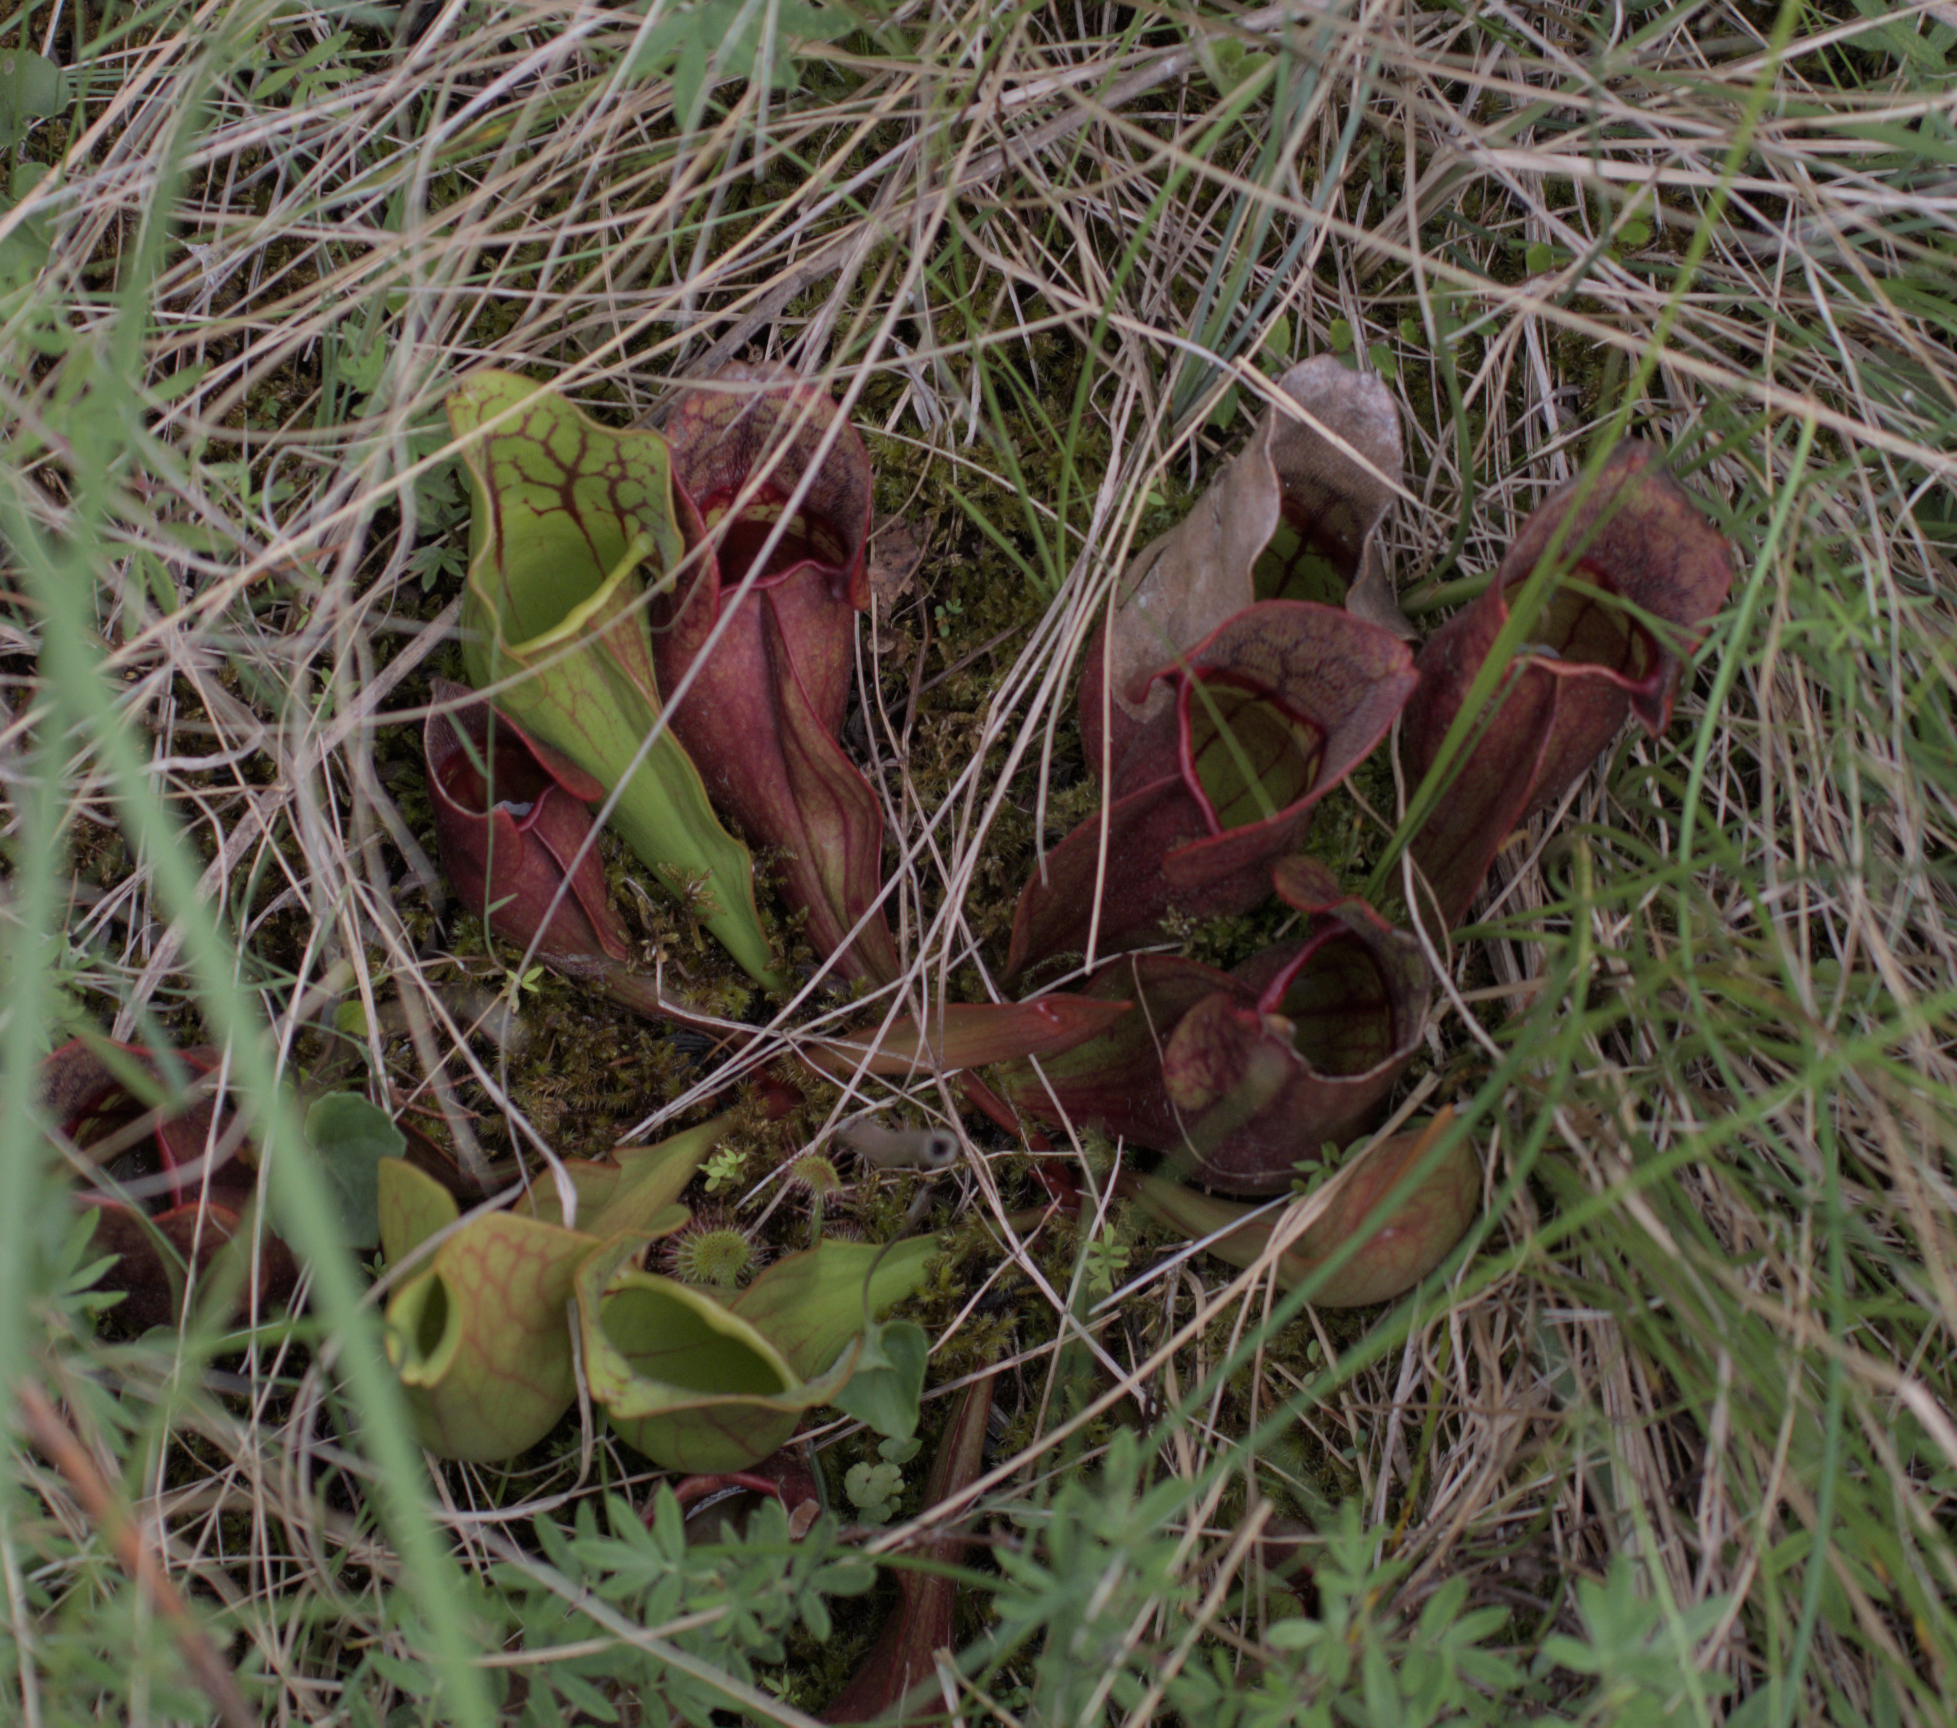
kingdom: Plantae
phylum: Tracheophyta
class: Magnoliopsida
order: Ericales
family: Sarraceniaceae
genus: Sarracenia
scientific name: Sarracenia purpurea
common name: Pitcherplant
